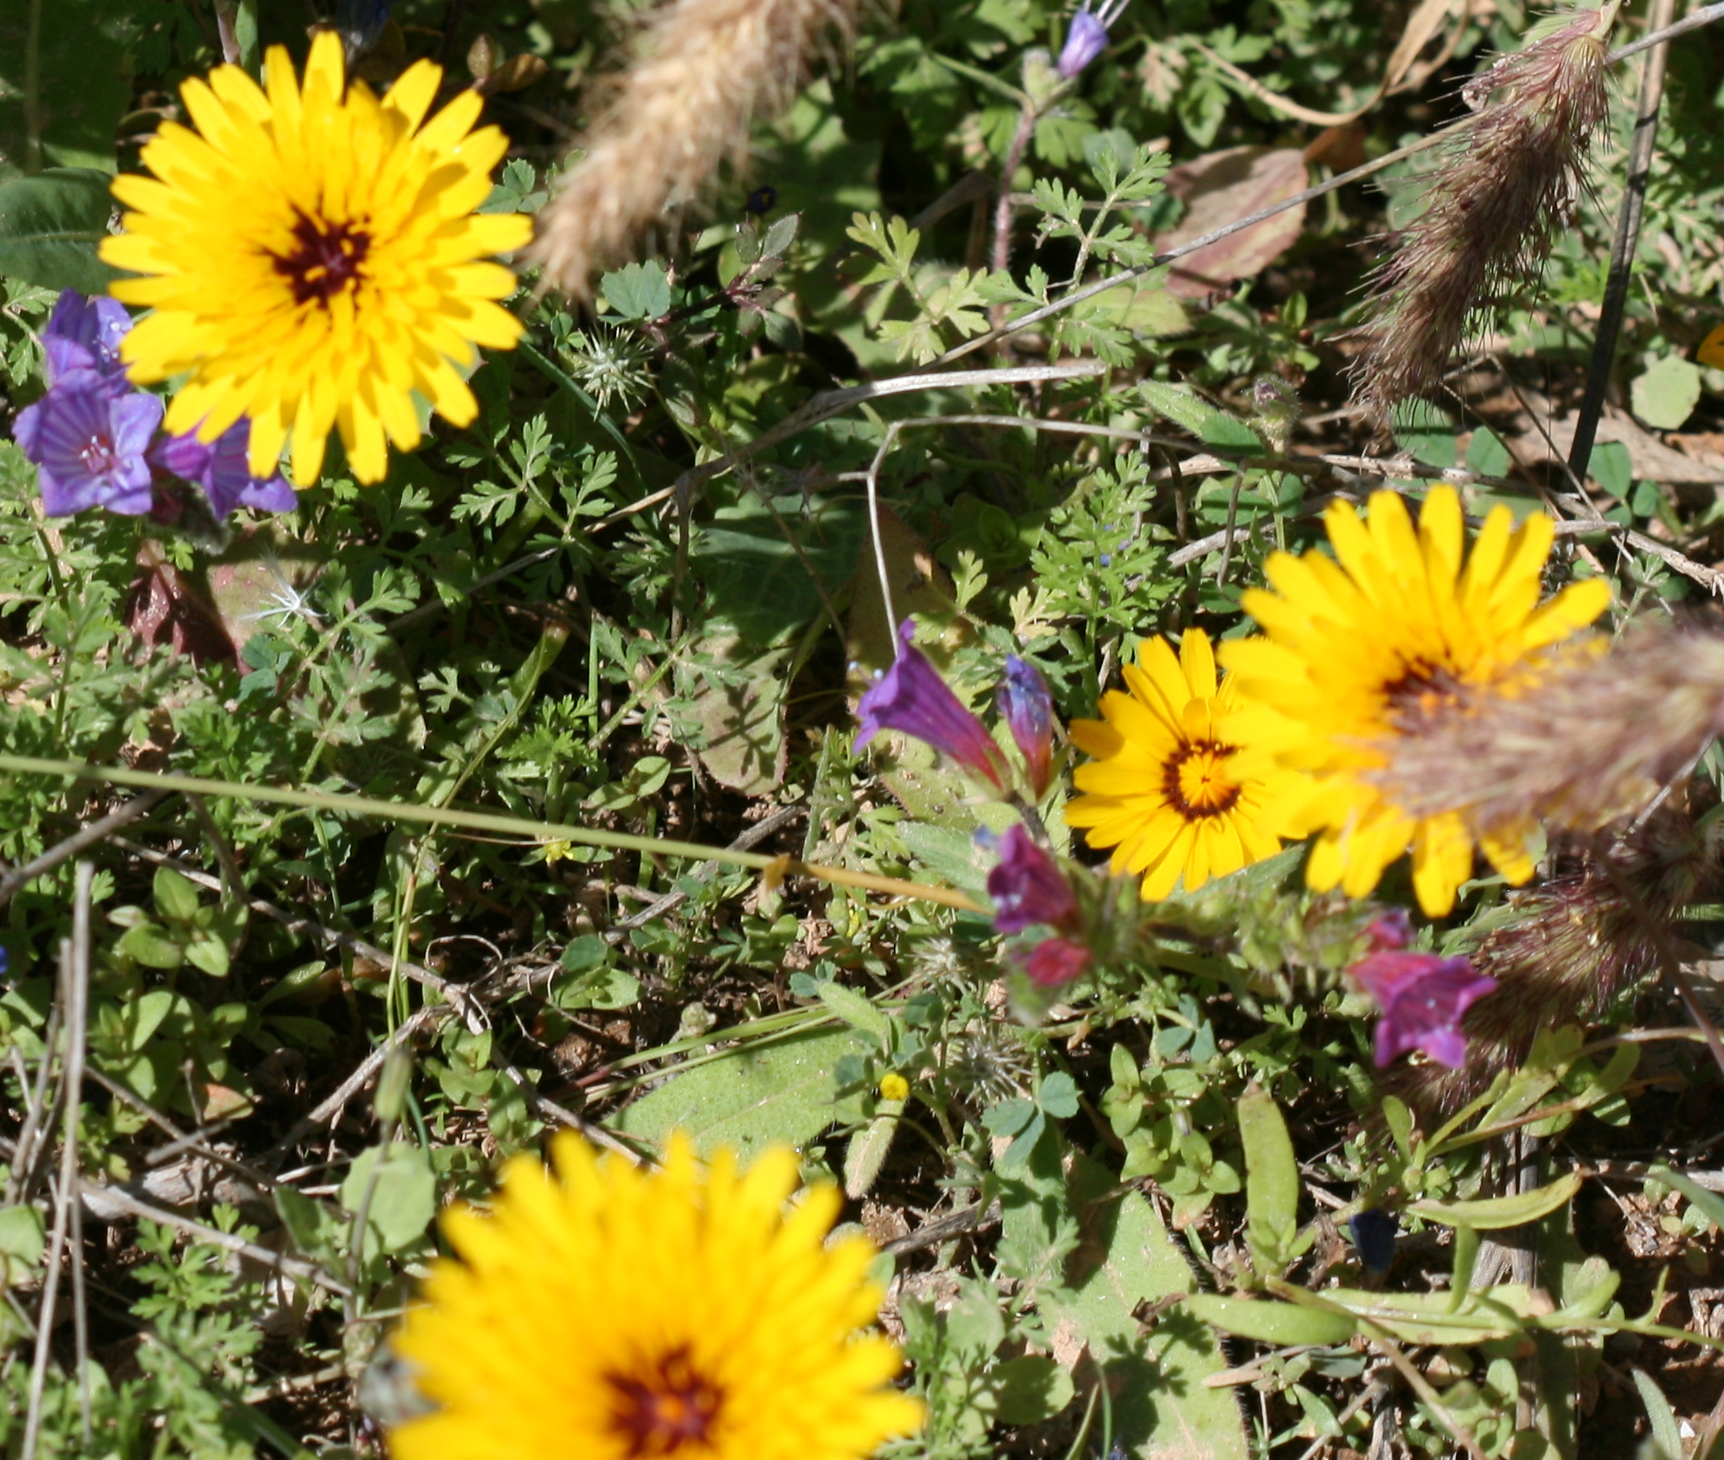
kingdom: Plantae
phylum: Tracheophyta
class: Magnoliopsida
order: Asterales
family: Asteraceae
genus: Reichardia
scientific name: Reichardia tingitana
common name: Reichardia
